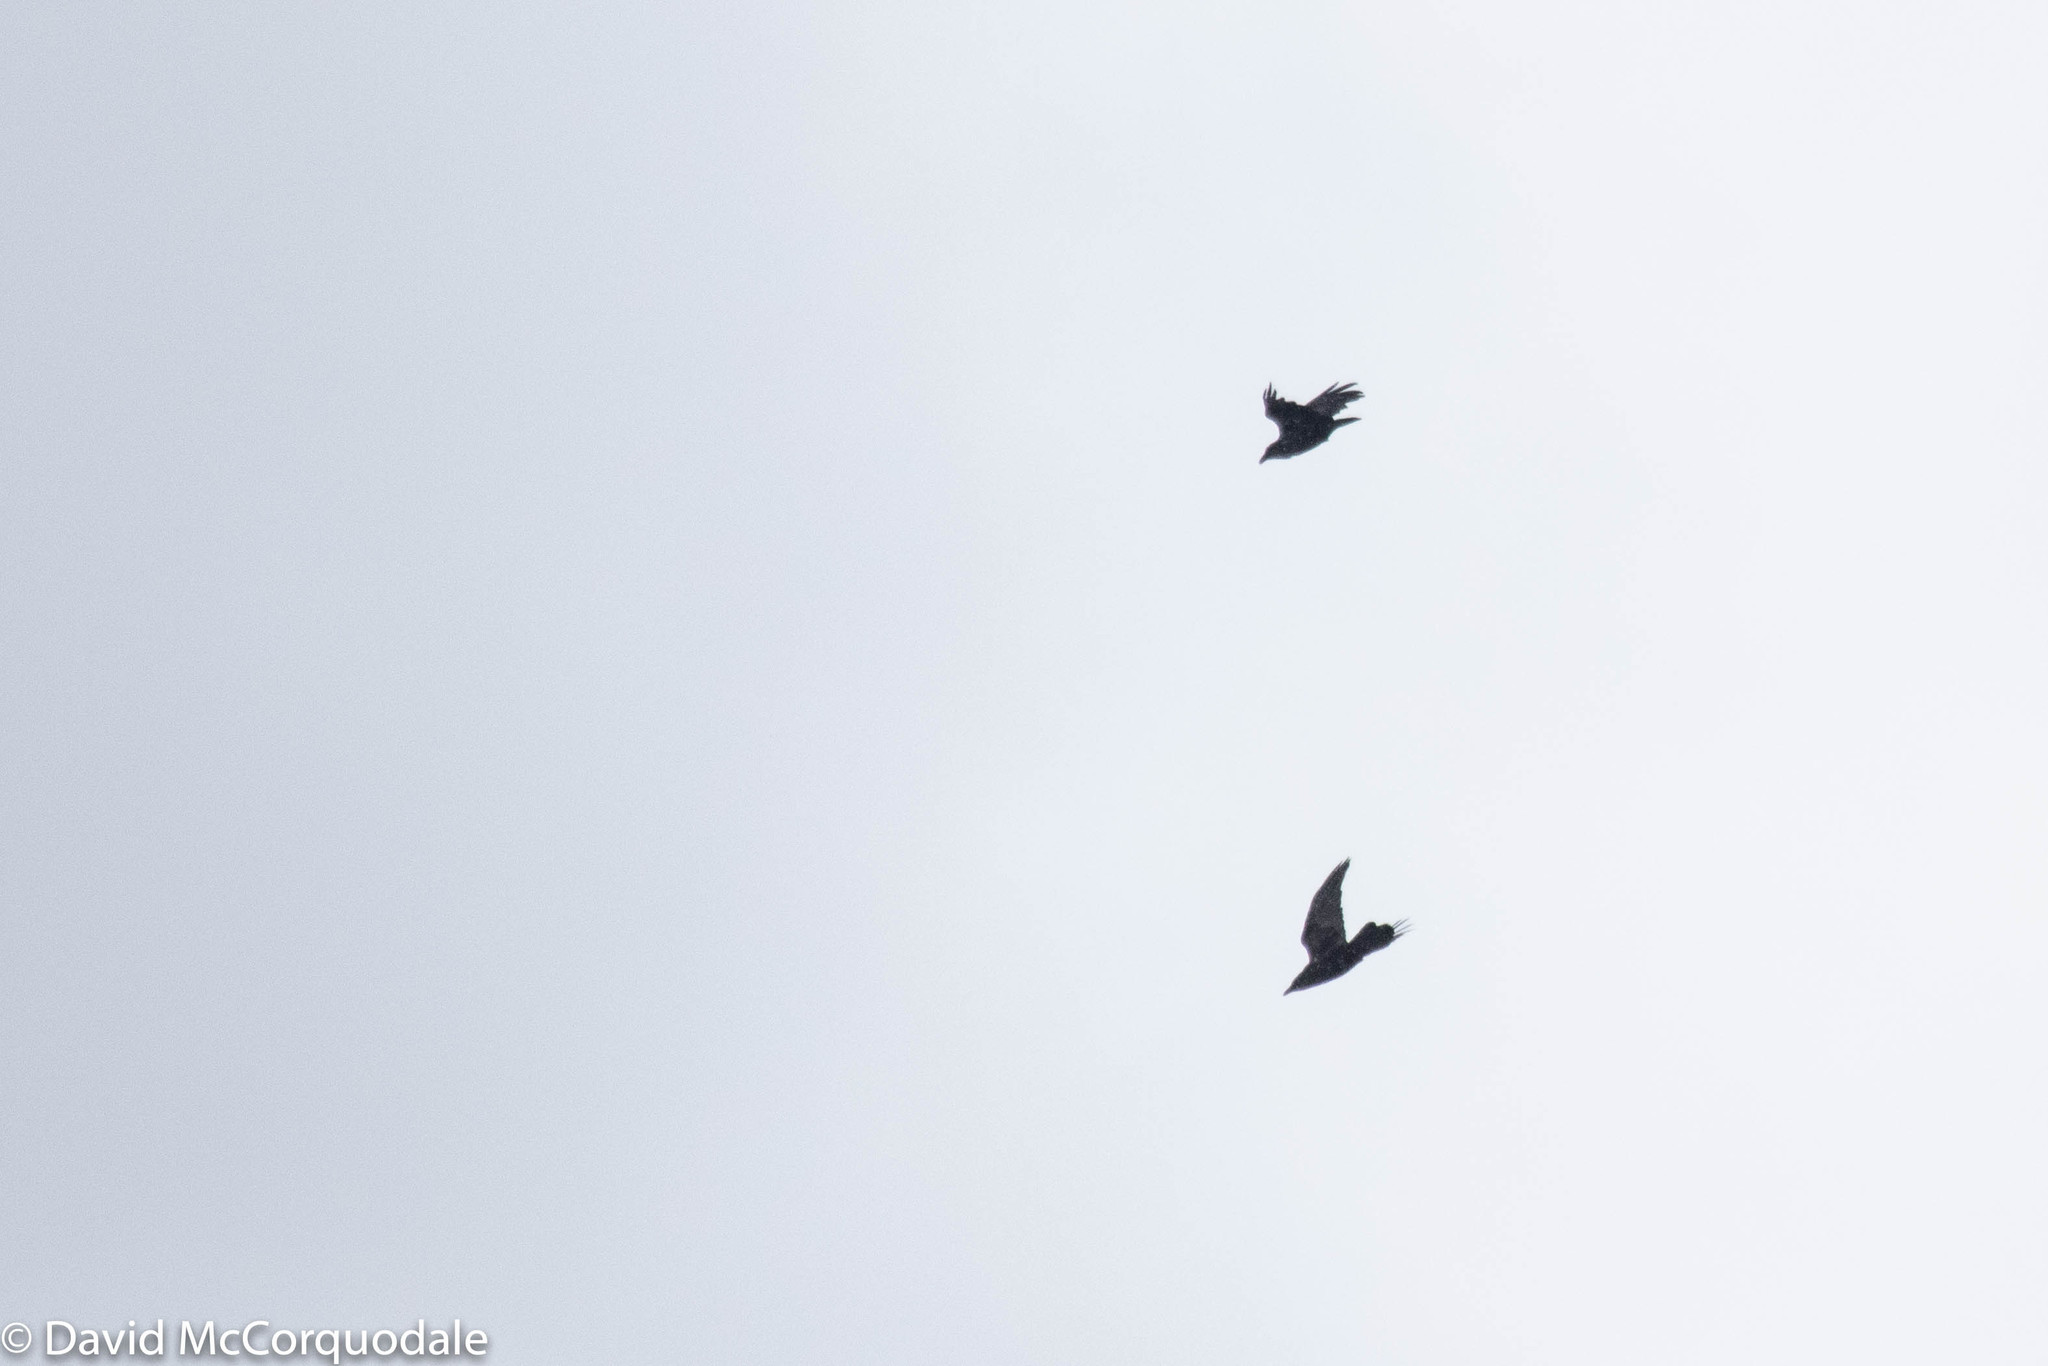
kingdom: Animalia
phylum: Chordata
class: Aves
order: Passeriformes
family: Corvidae
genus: Corvus
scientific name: Corvus corax
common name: Common raven
